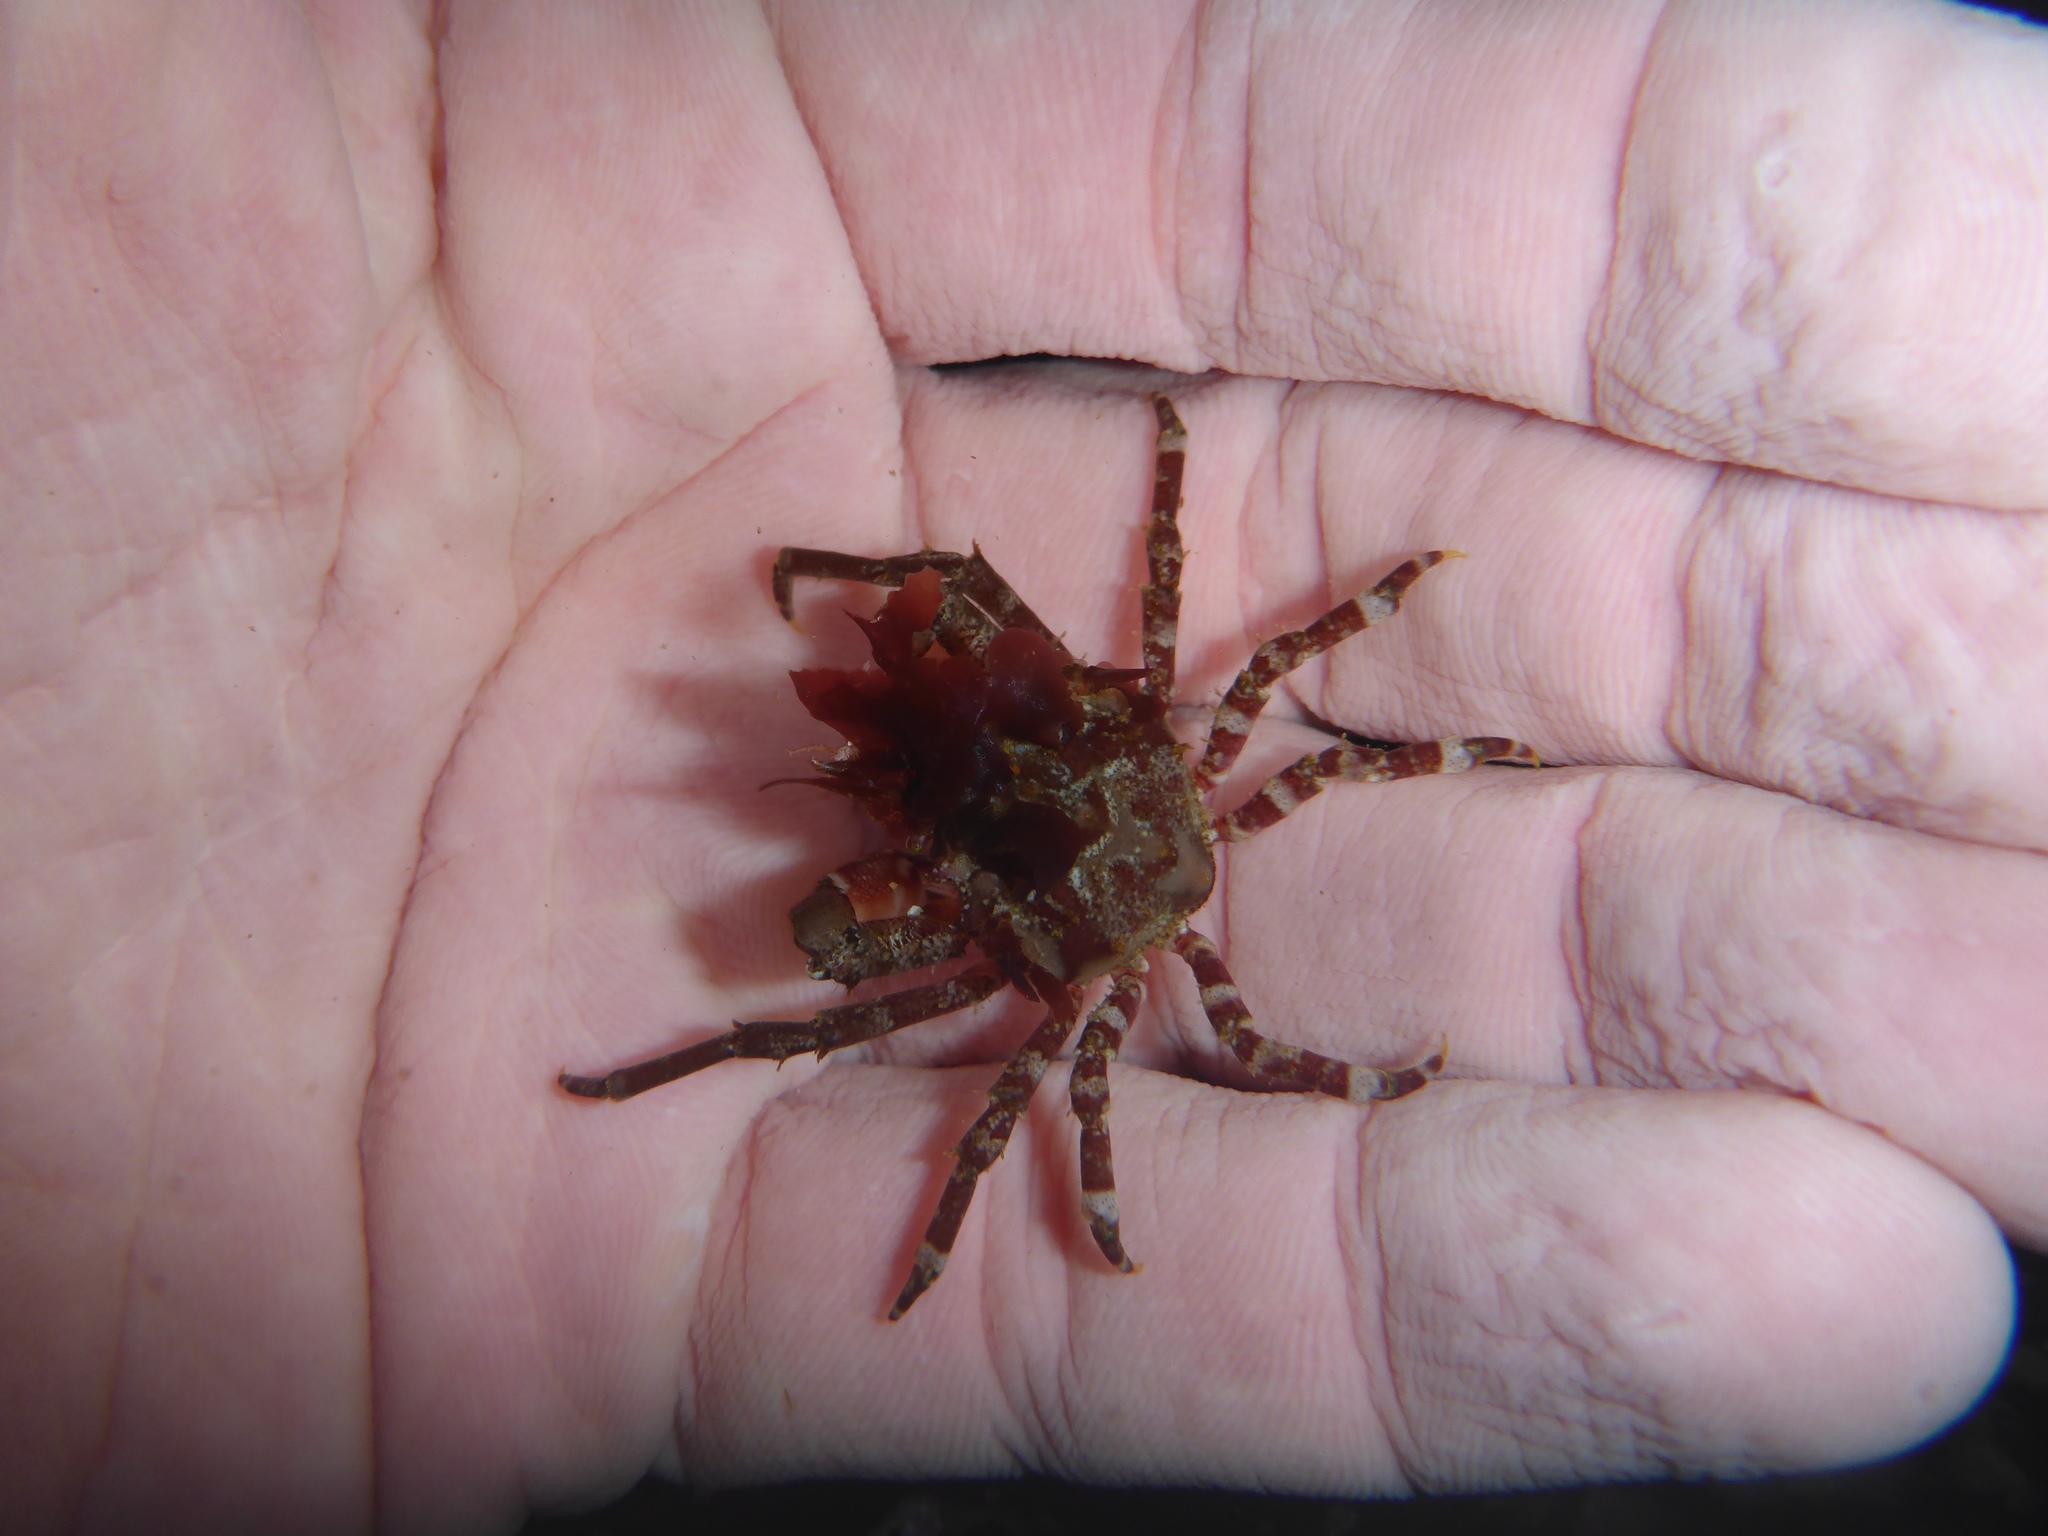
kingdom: Animalia
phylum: Arthropoda
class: Malacostraca
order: Decapoda
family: Epialtidae
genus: Pugettia
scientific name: Pugettia richii
